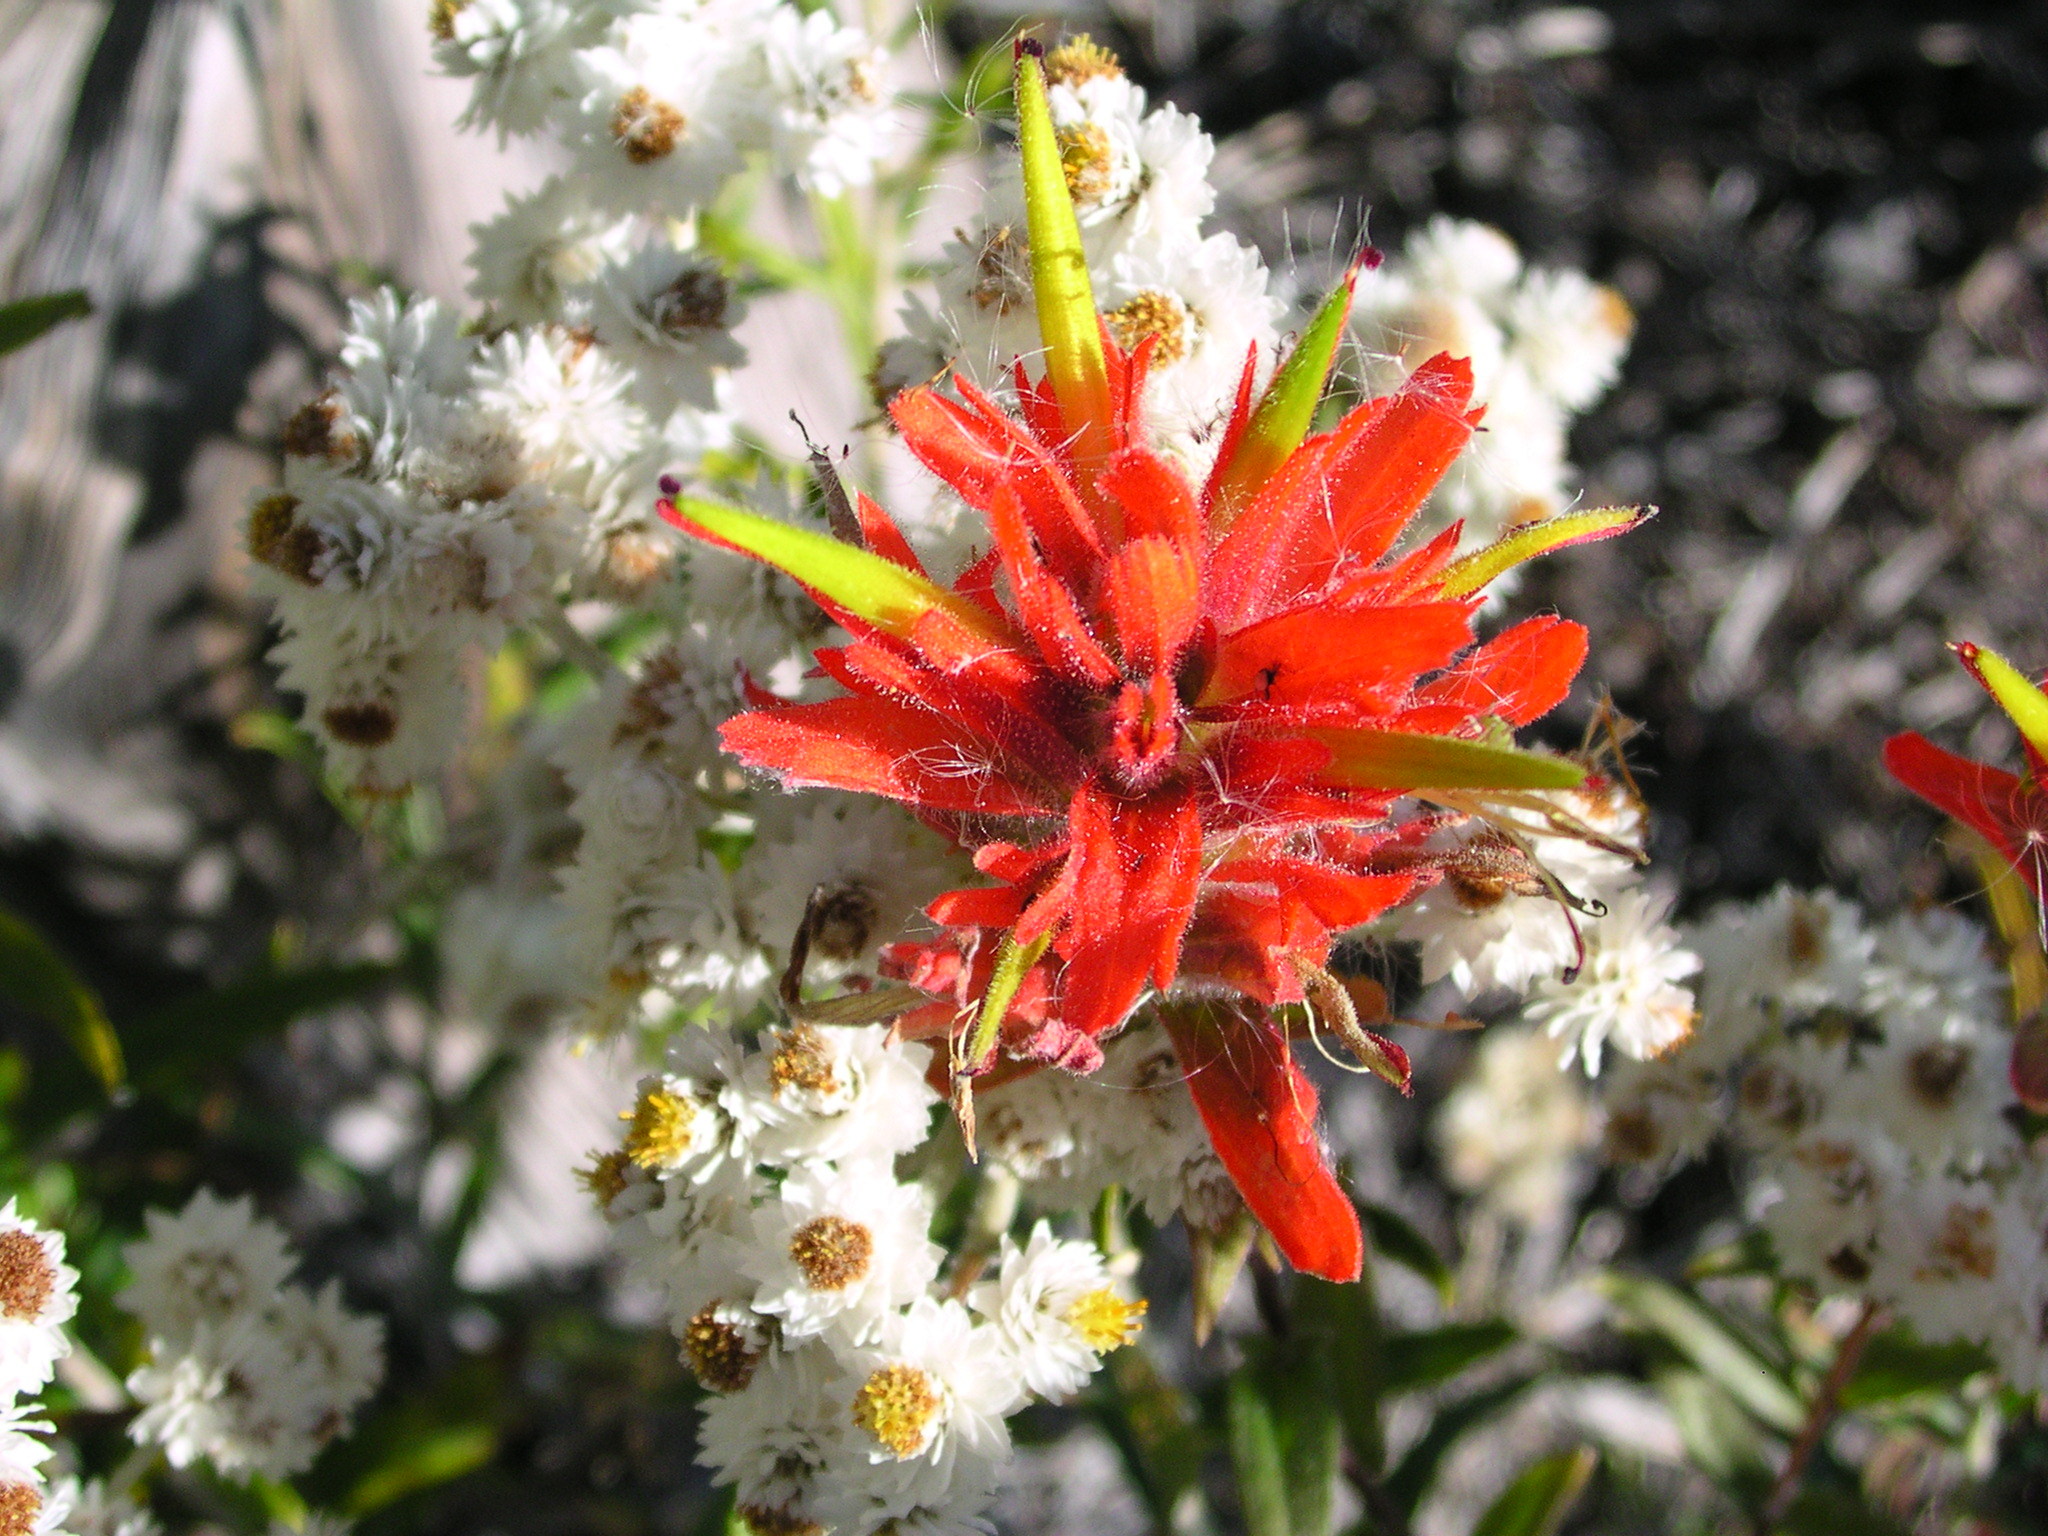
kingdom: Plantae
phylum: Tracheophyta
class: Magnoliopsida
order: Lamiales
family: Orobanchaceae
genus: Castilleja
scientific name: Castilleja miniata
